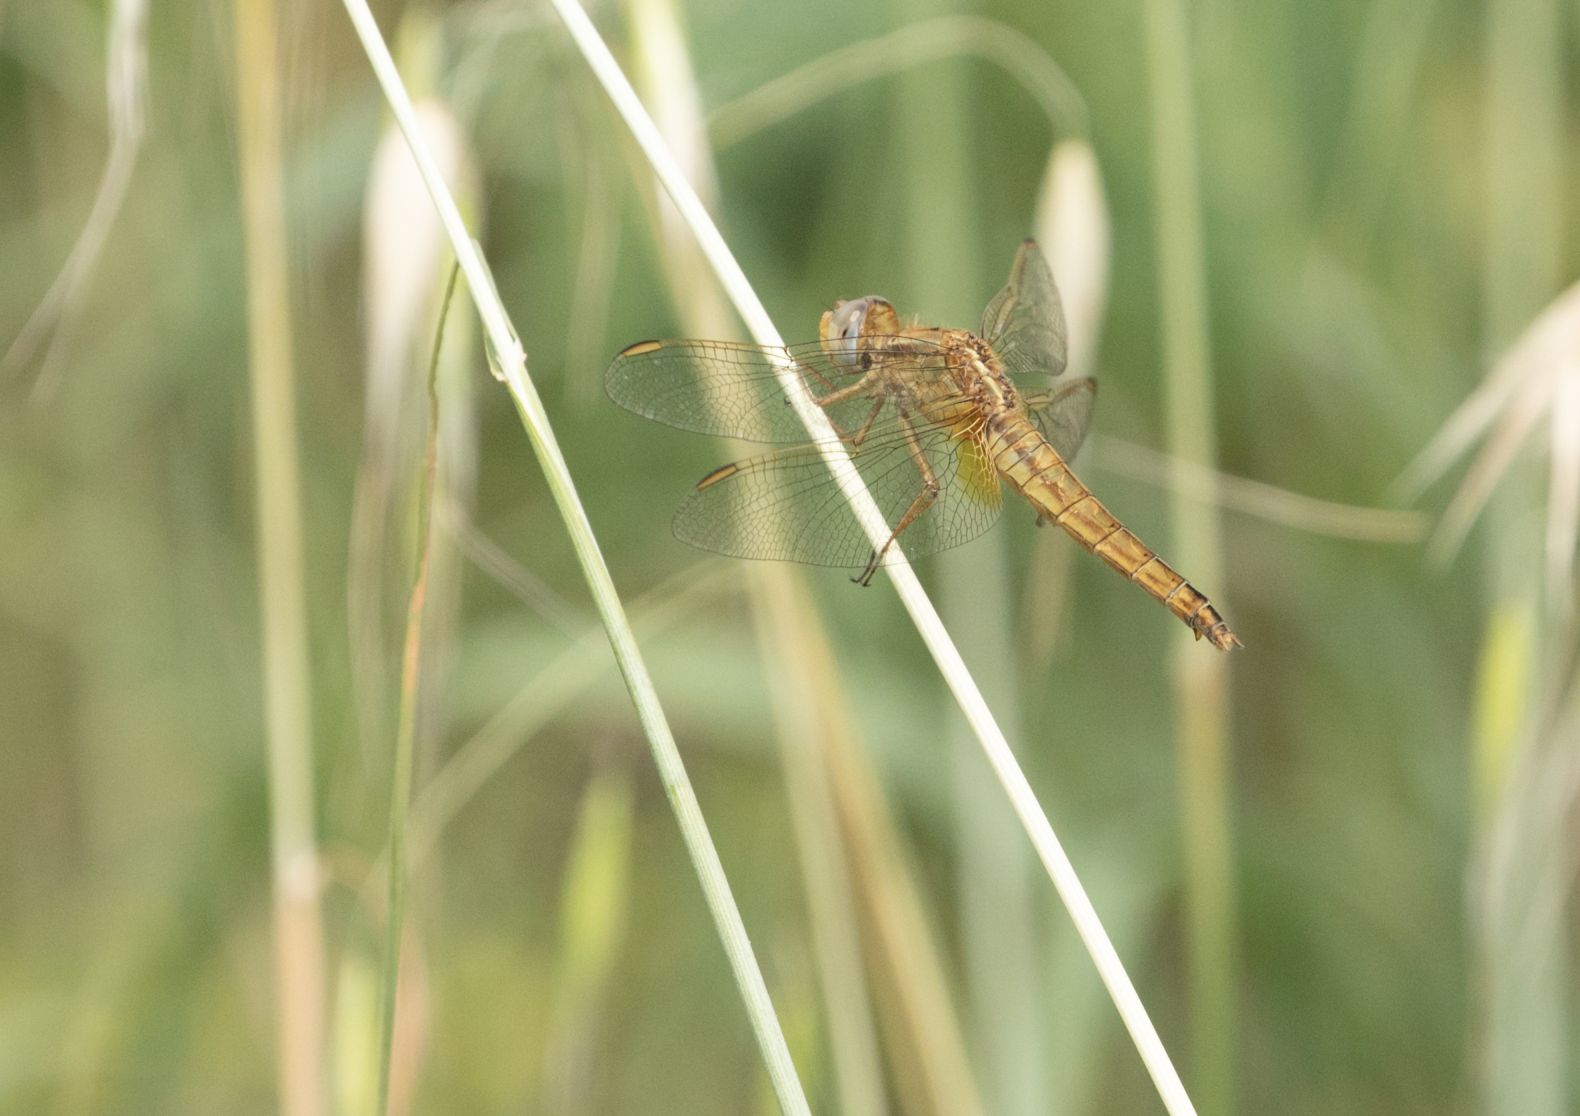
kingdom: Animalia
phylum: Arthropoda
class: Insecta
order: Odonata
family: Libellulidae
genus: Crocothemis
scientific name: Crocothemis erythraea
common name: Scarlet dragonfly
